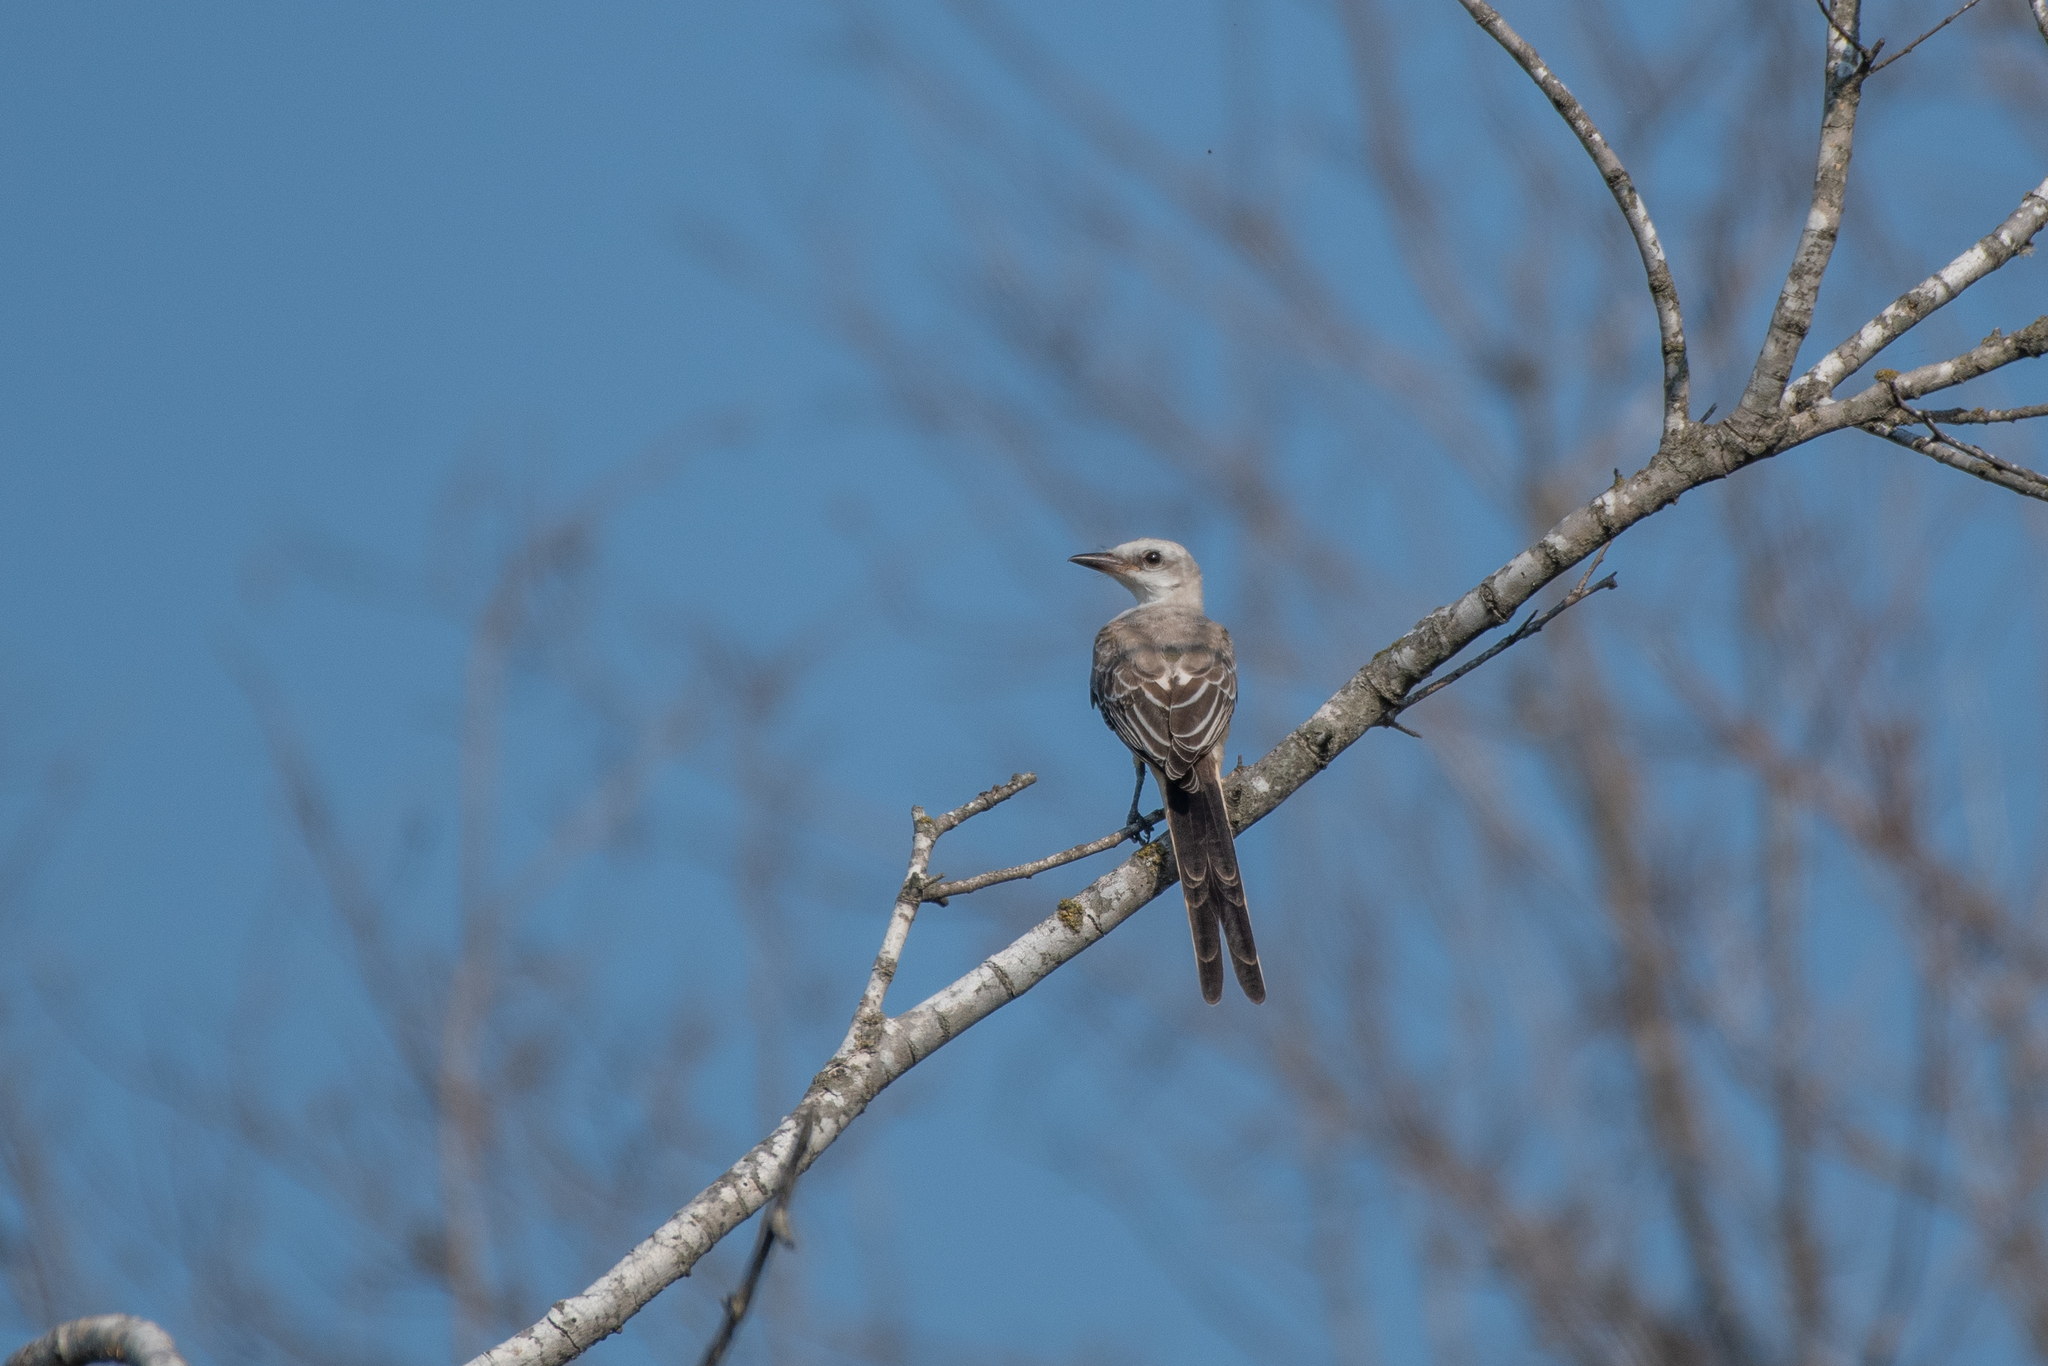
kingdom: Animalia
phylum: Chordata
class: Aves
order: Passeriformes
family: Tyrannidae
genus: Tyrannus
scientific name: Tyrannus forficatus
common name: Scissor-tailed flycatcher
